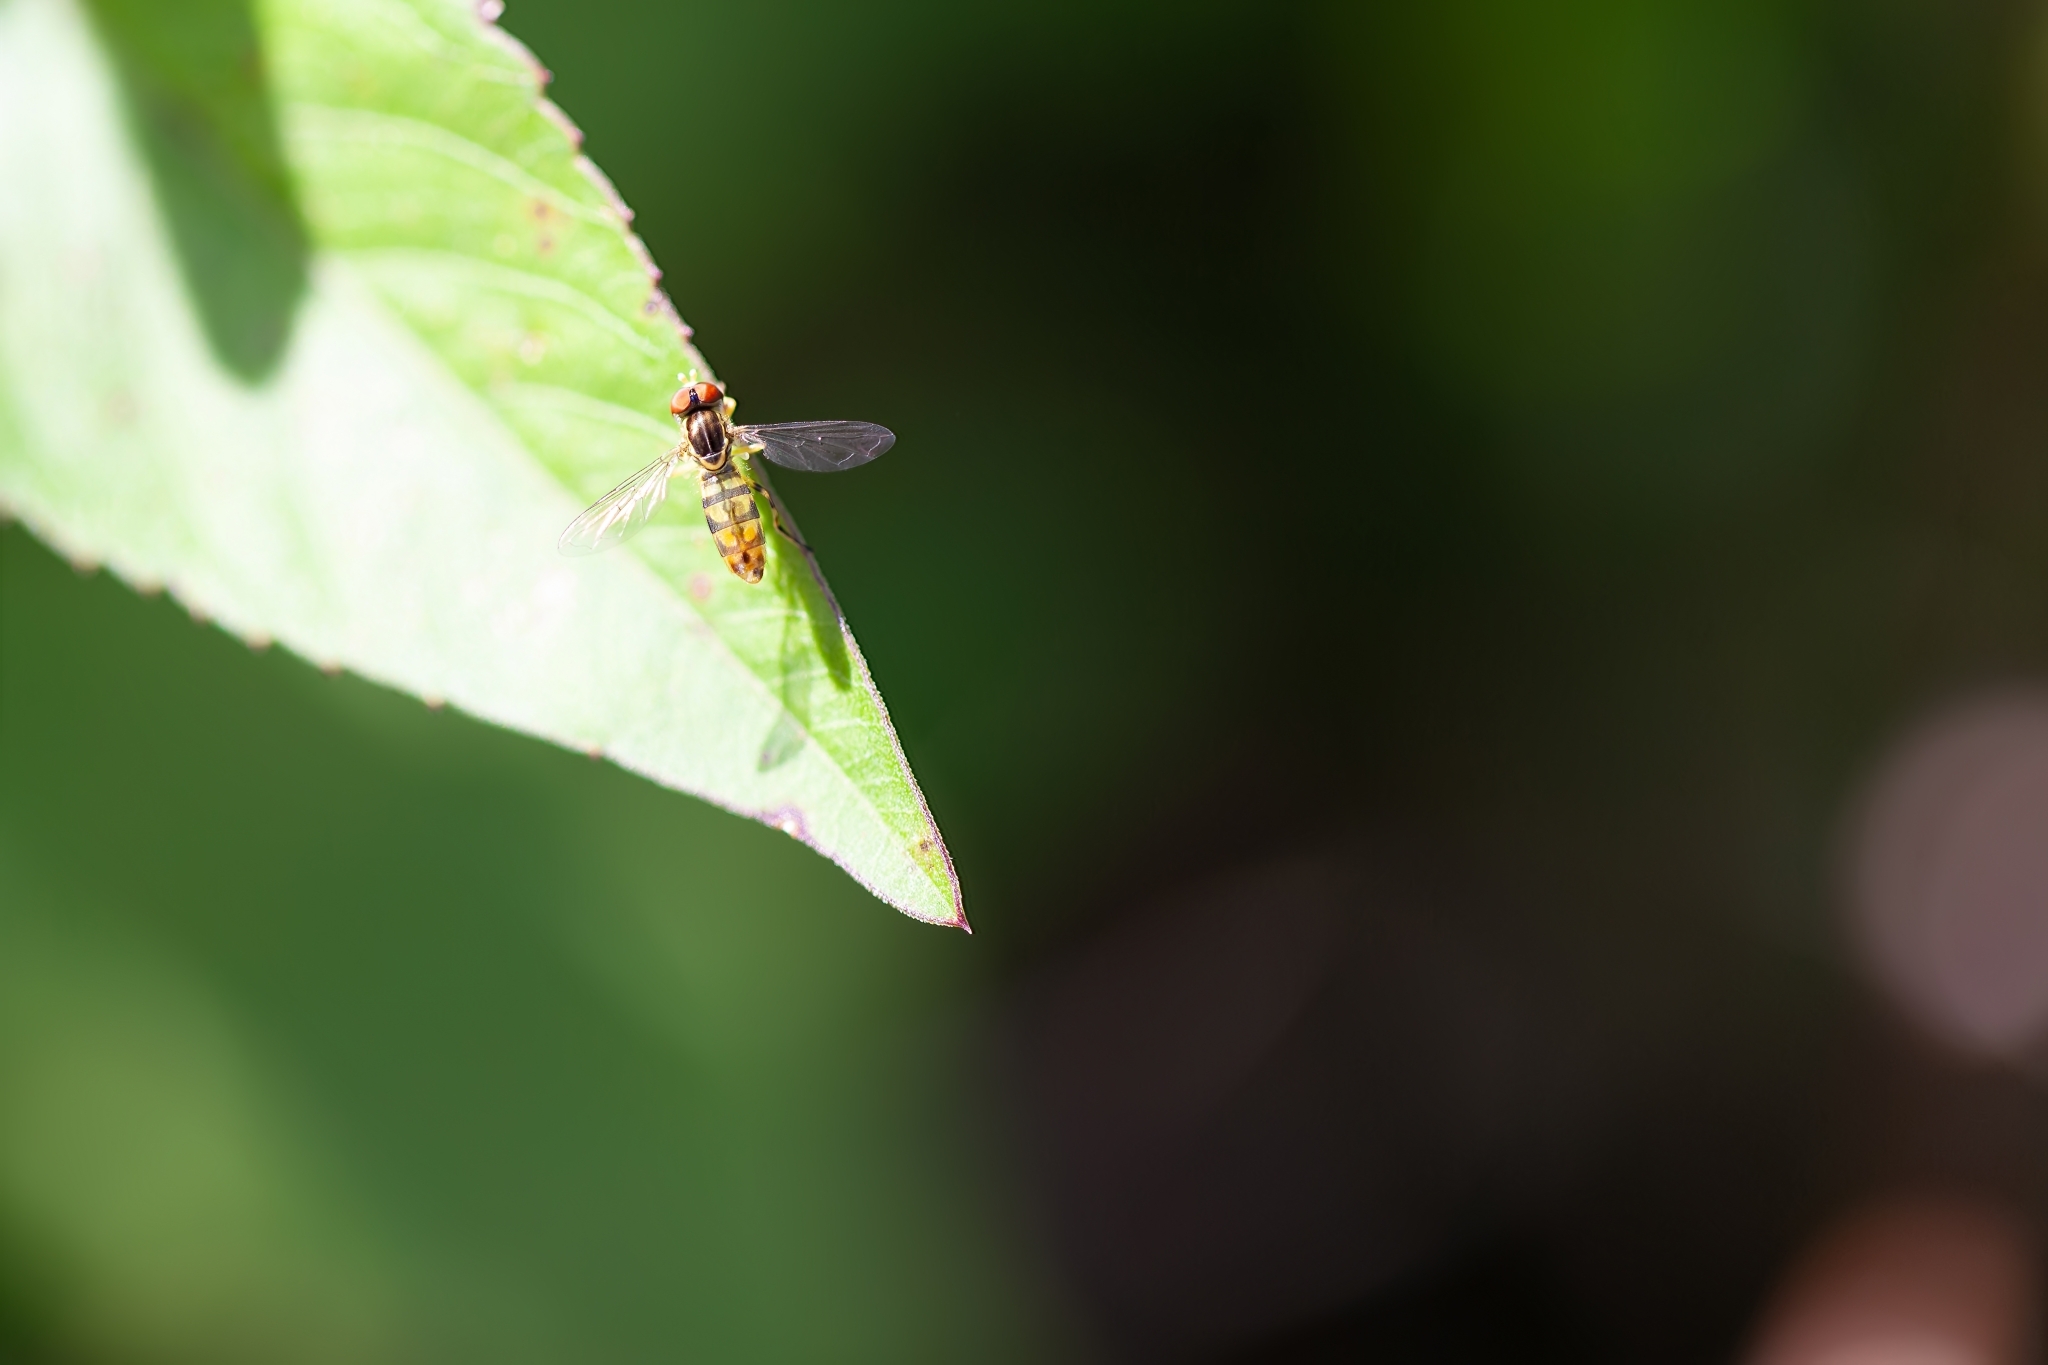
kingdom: Animalia
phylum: Arthropoda
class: Insecta
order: Diptera
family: Syrphidae
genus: Toxomerus
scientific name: Toxomerus floralis
